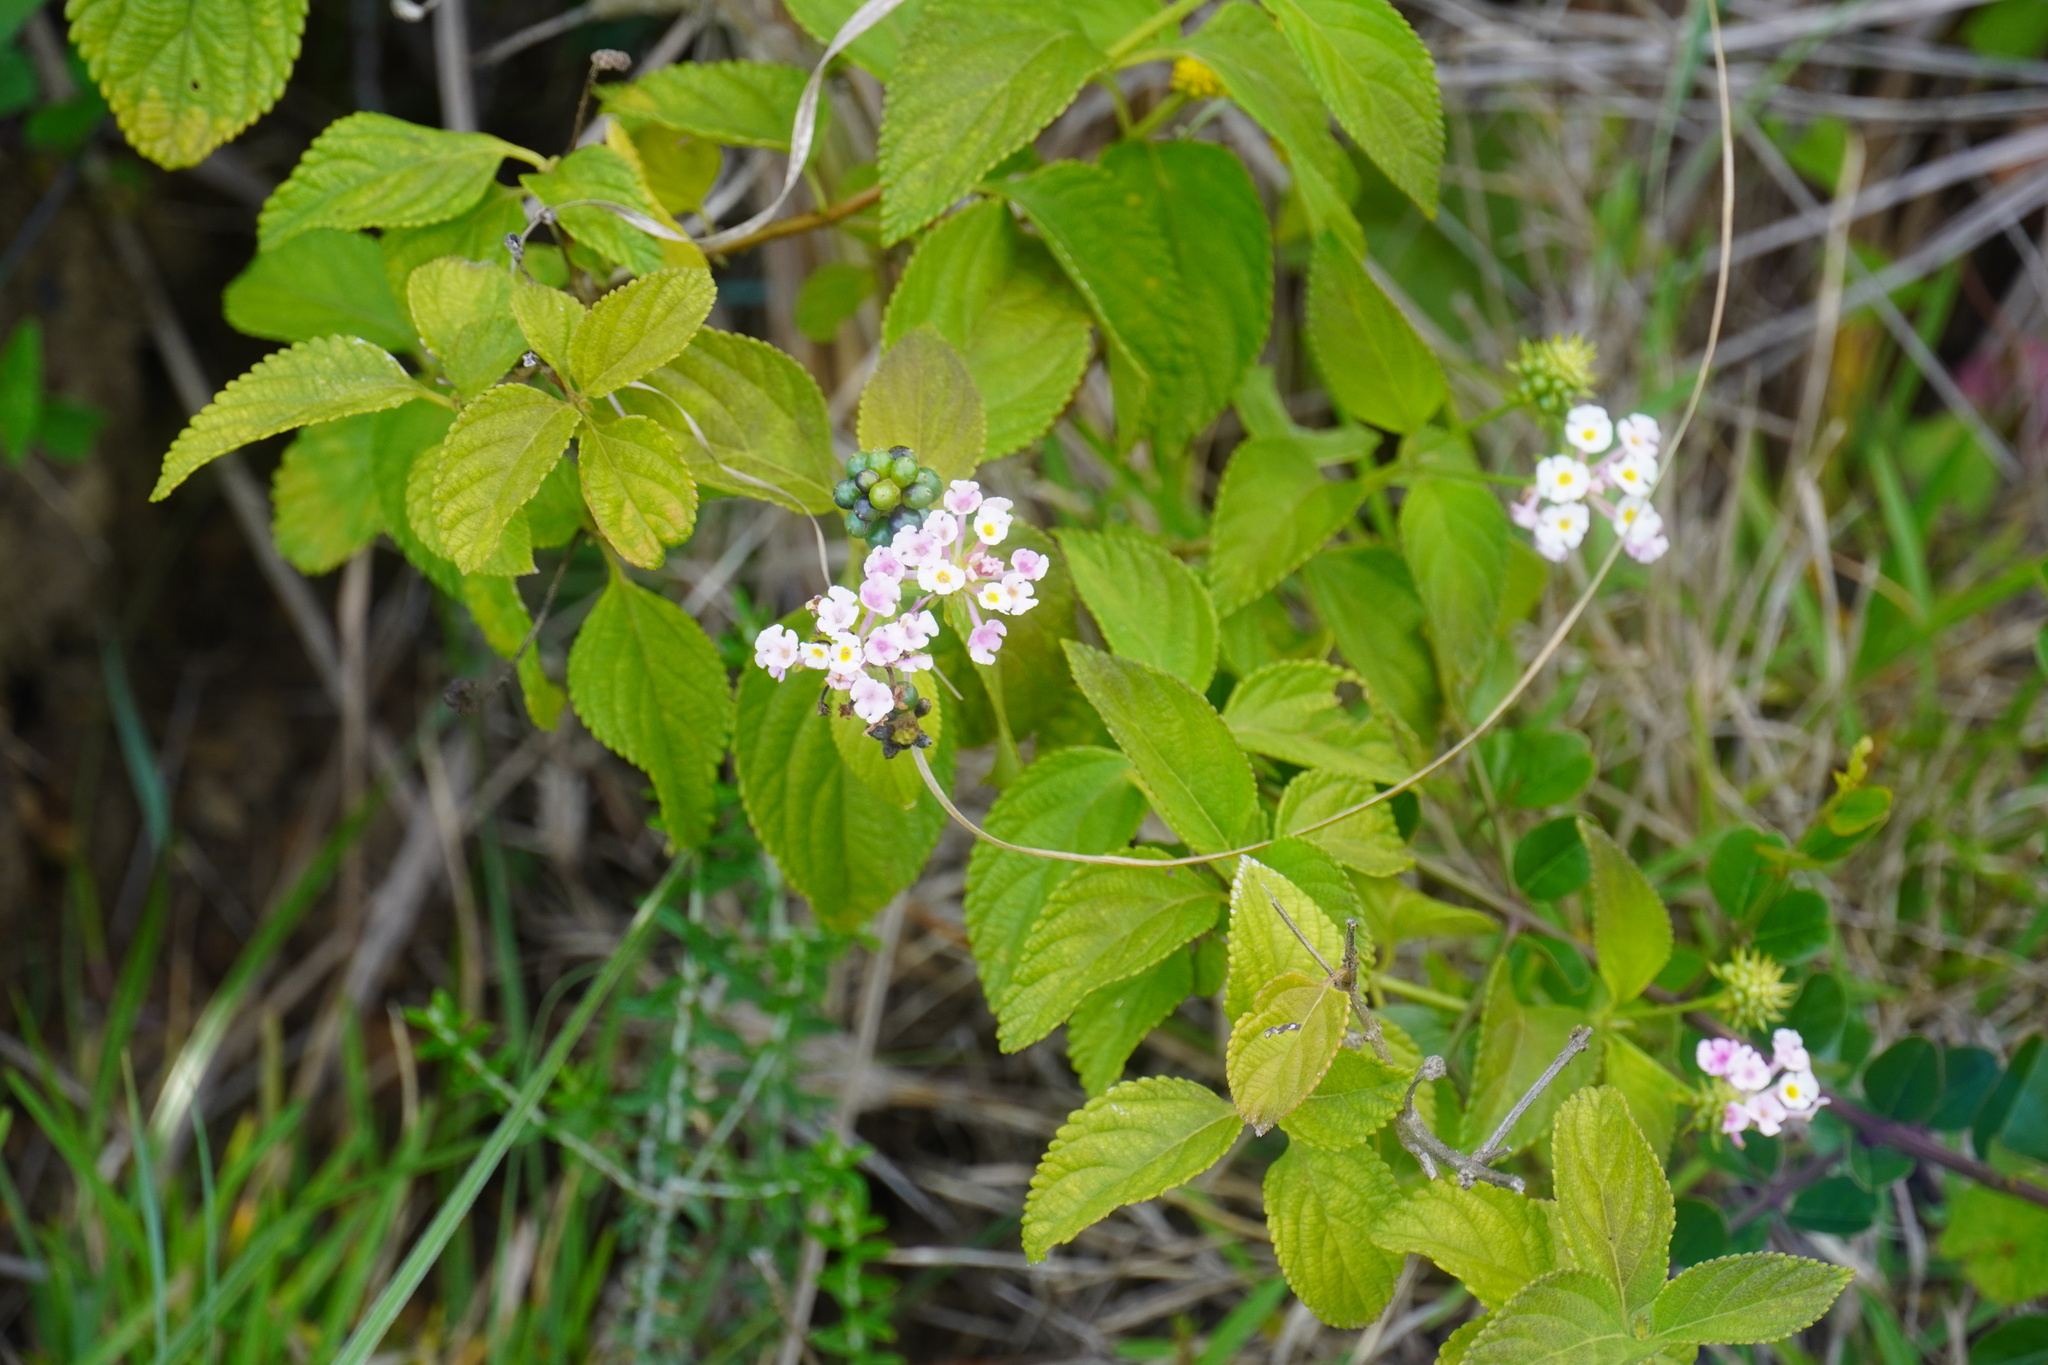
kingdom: Plantae
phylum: Tracheophyta
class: Magnoliopsida
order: Lamiales
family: Verbenaceae
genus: Lantana
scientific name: Lantana camara
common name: Lantana
